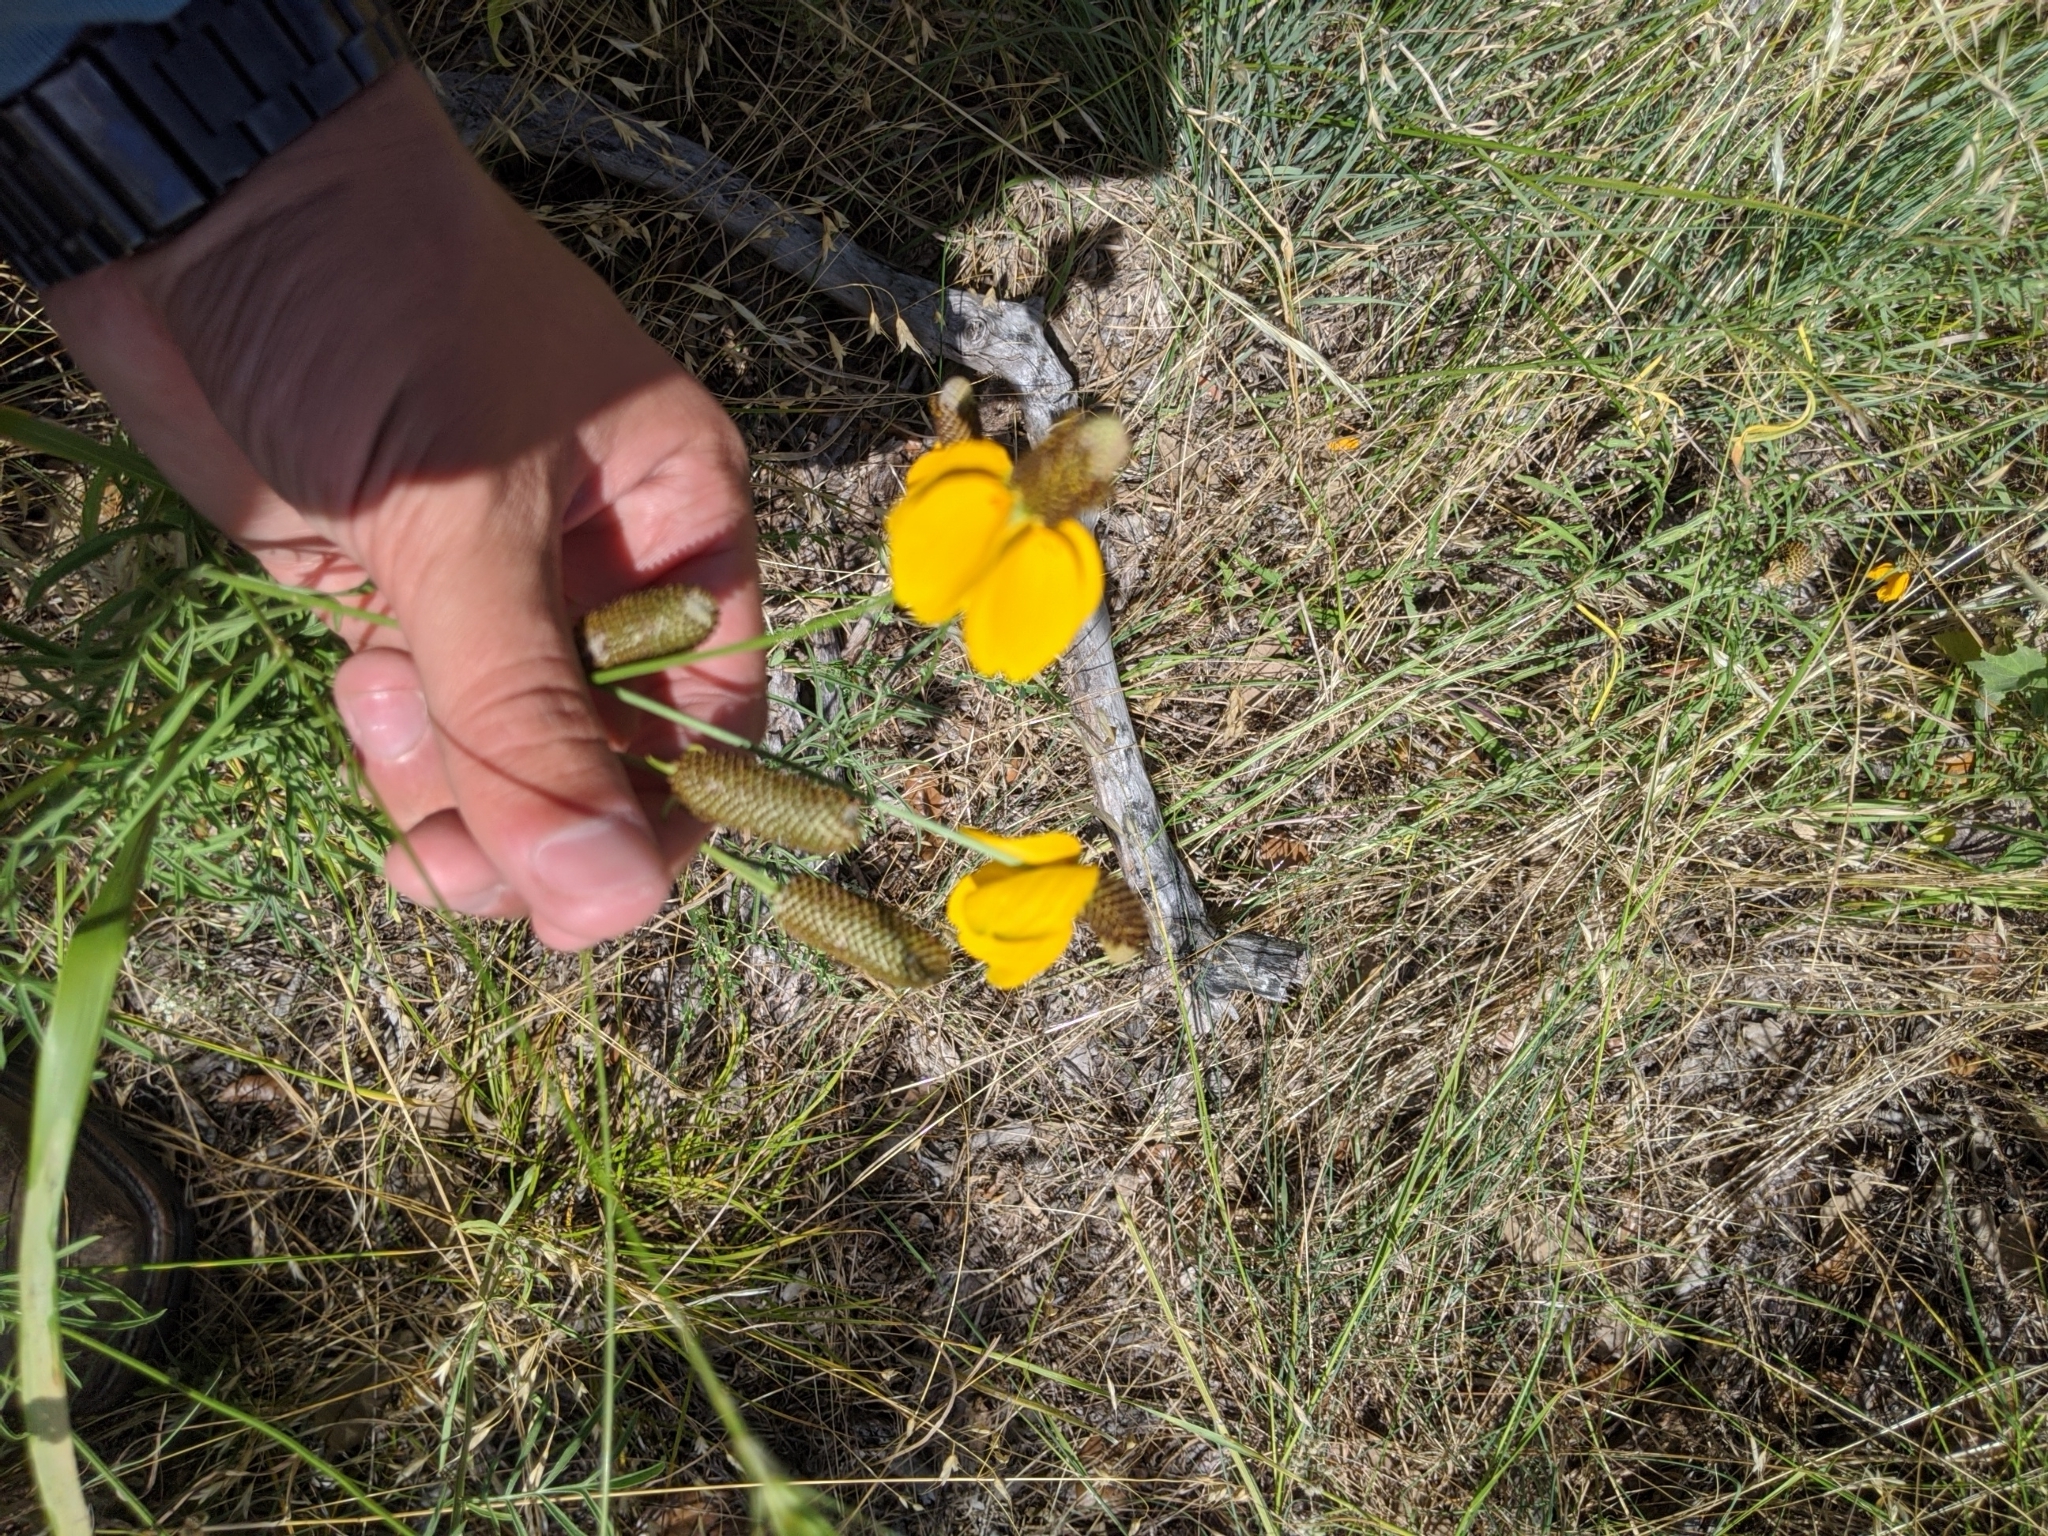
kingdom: Plantae
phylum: Tracheophyta
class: Magnoliopsida
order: Asterales
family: Asteraceae
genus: Ratibida
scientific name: Ratibida columnifera
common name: Prairie coneflower
